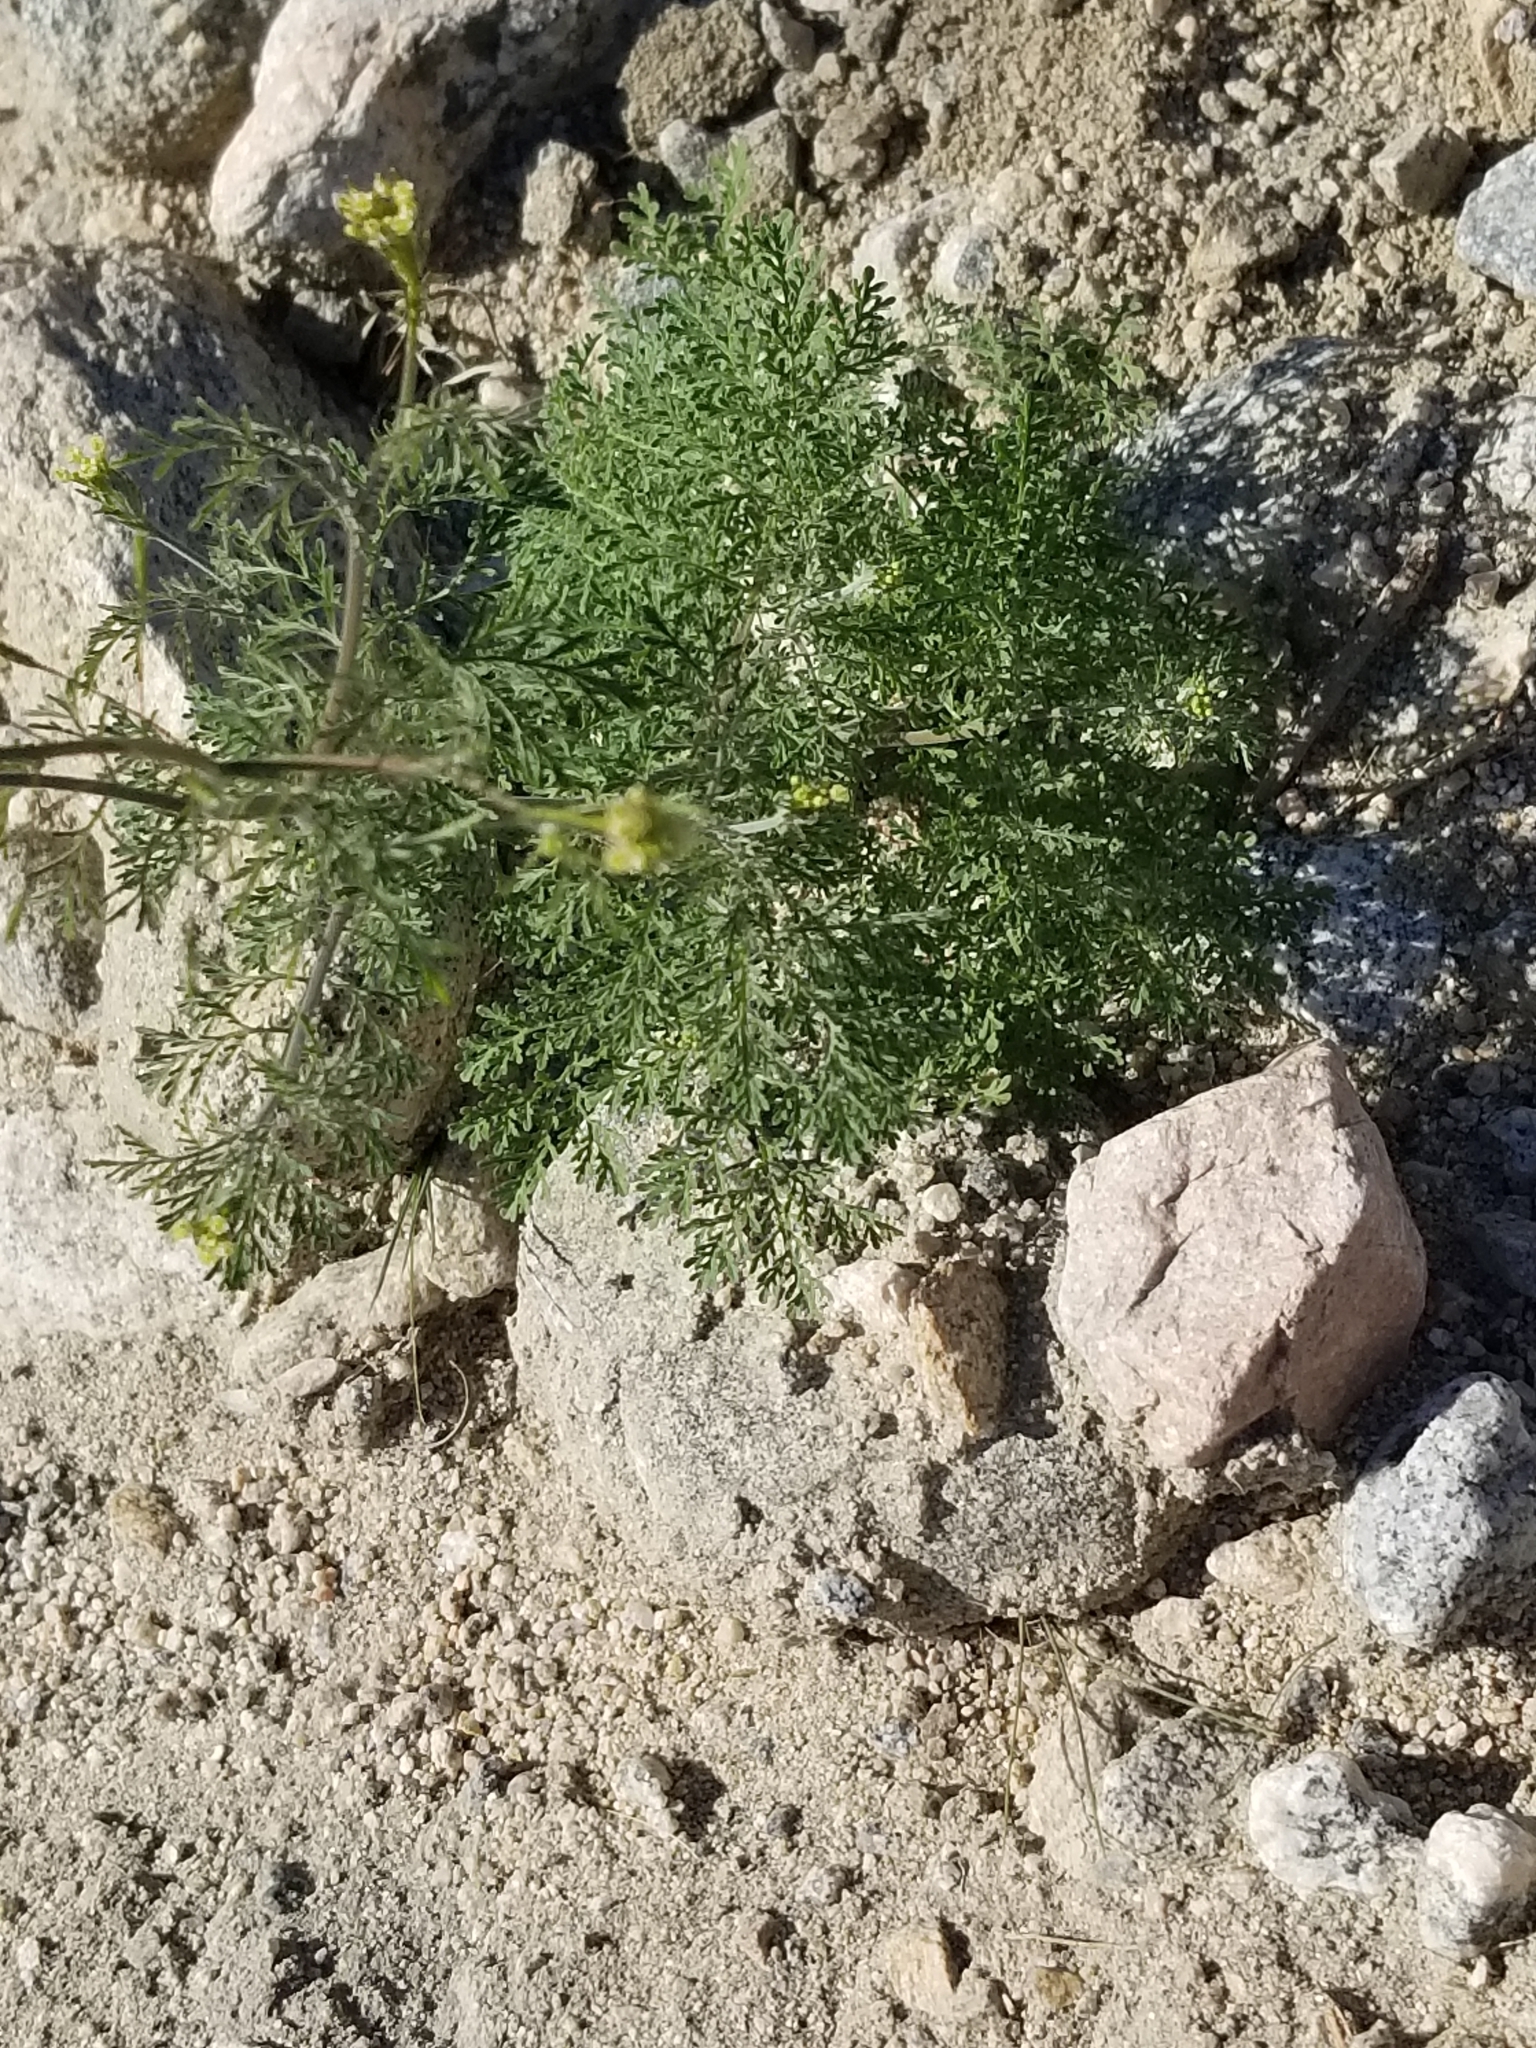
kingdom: Plantae
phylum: Tracheophyta
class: Magnoliopsida
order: Brassicales
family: Brassicaceae
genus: Descurainia
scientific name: Descurainia pinnata
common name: Western tansy mustard
